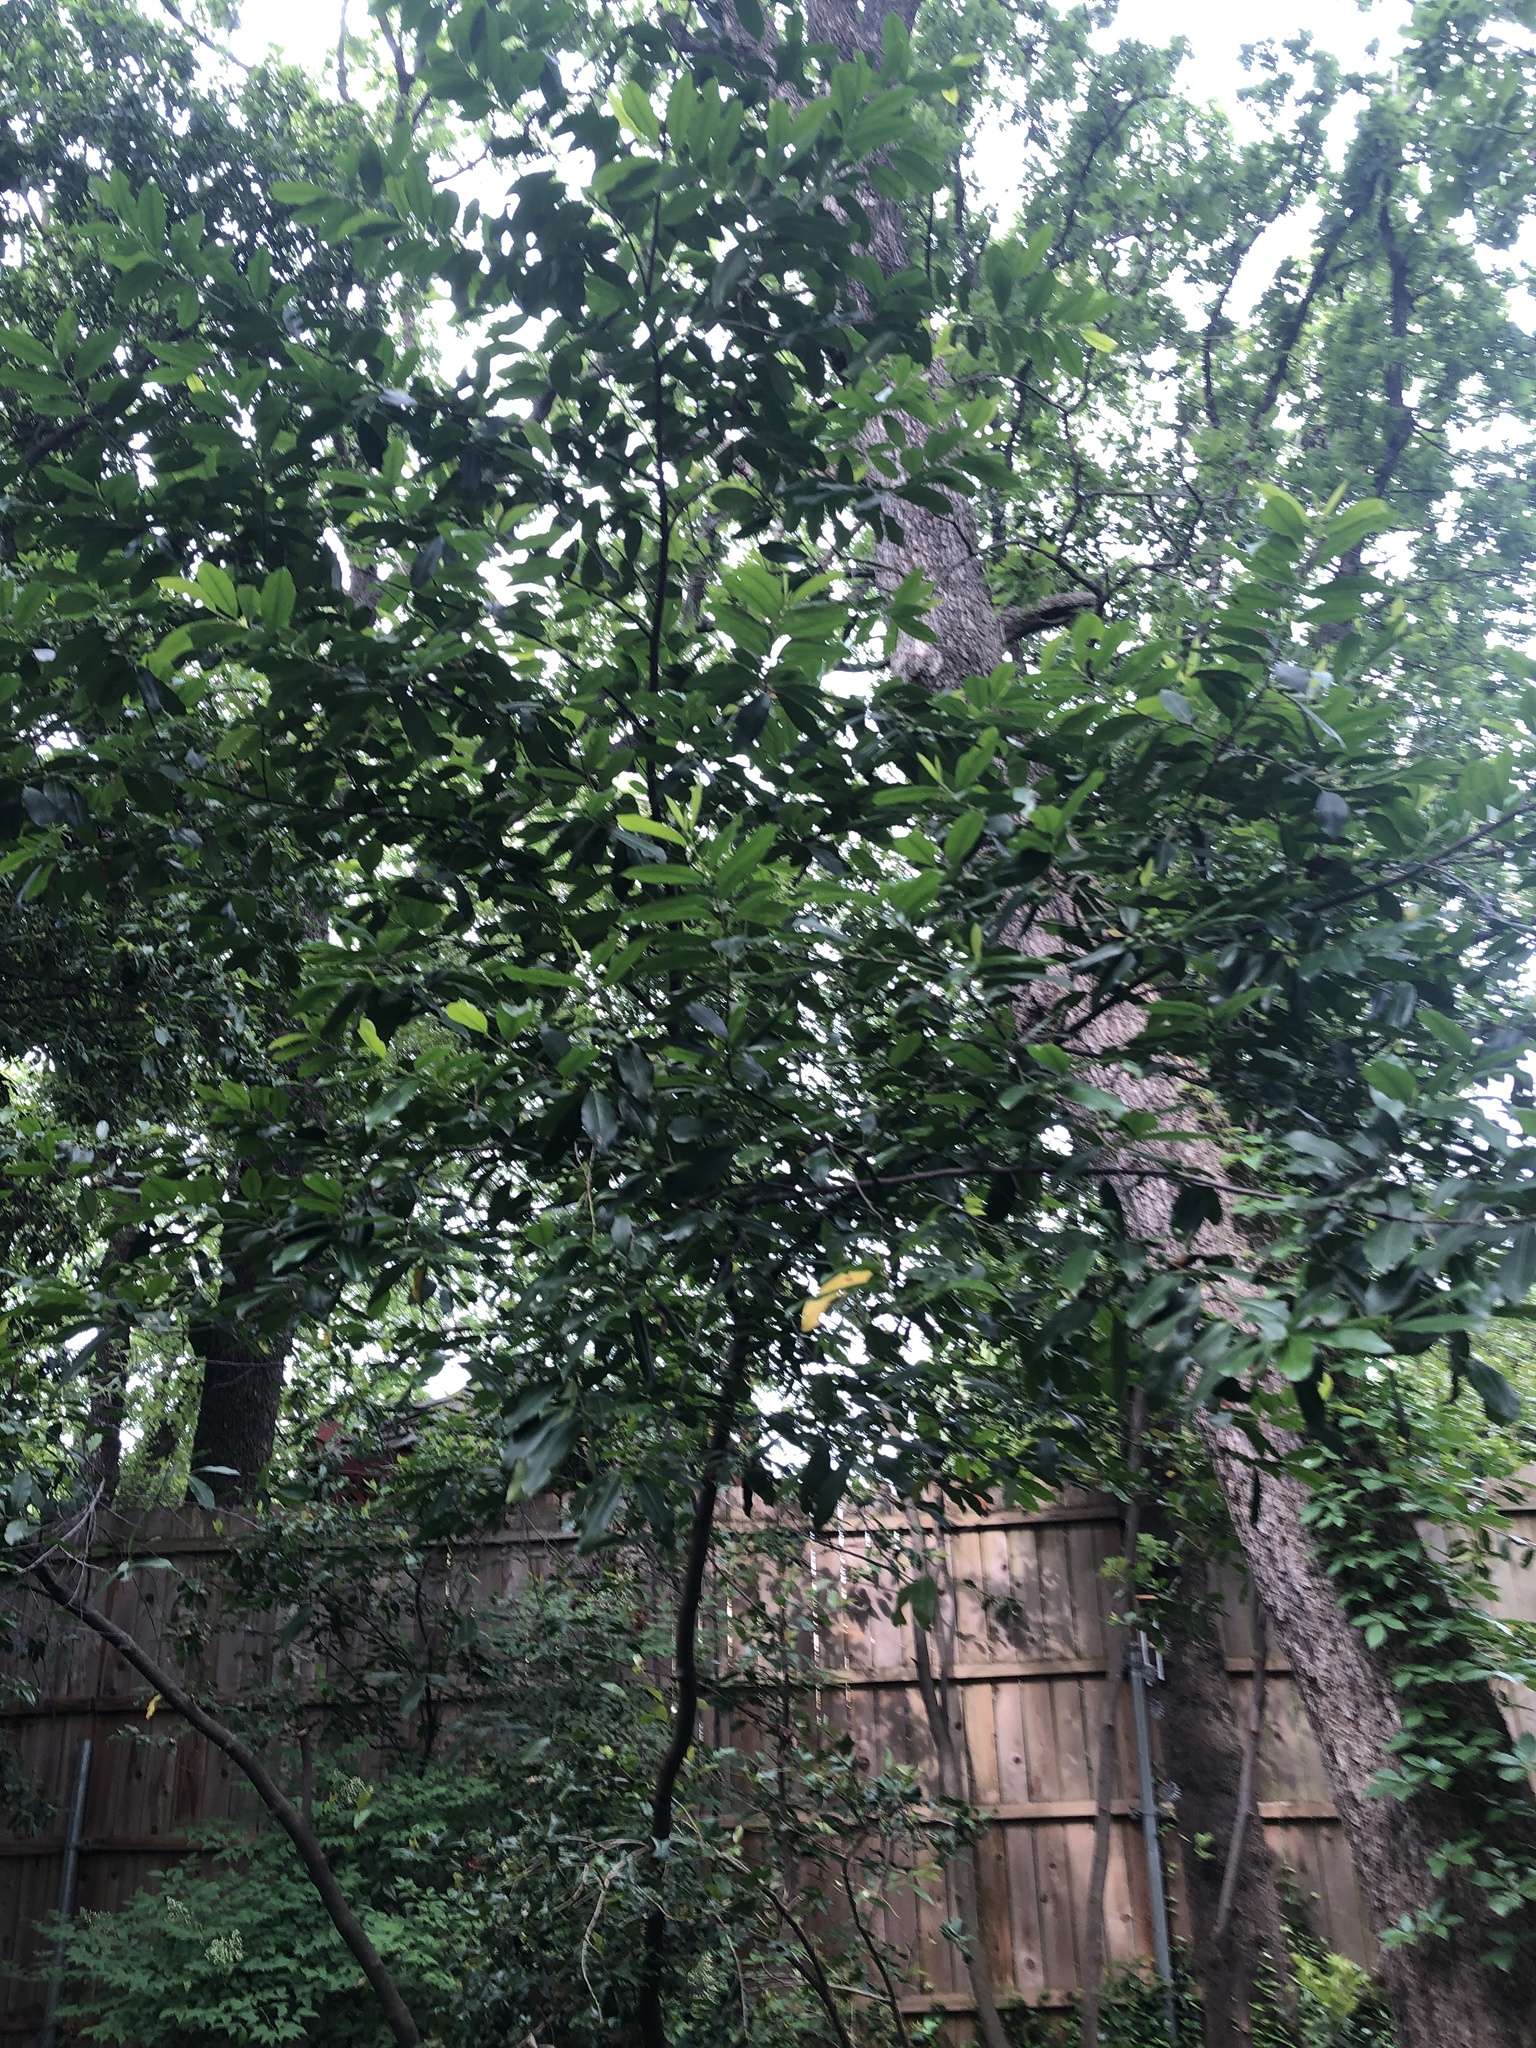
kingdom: Plantae
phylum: Tracheophyta
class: Magnoliopsida
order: Rosales
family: Rosaceae
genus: Prunus
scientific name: Prunus caroliniana
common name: Carolina laurel cherry
